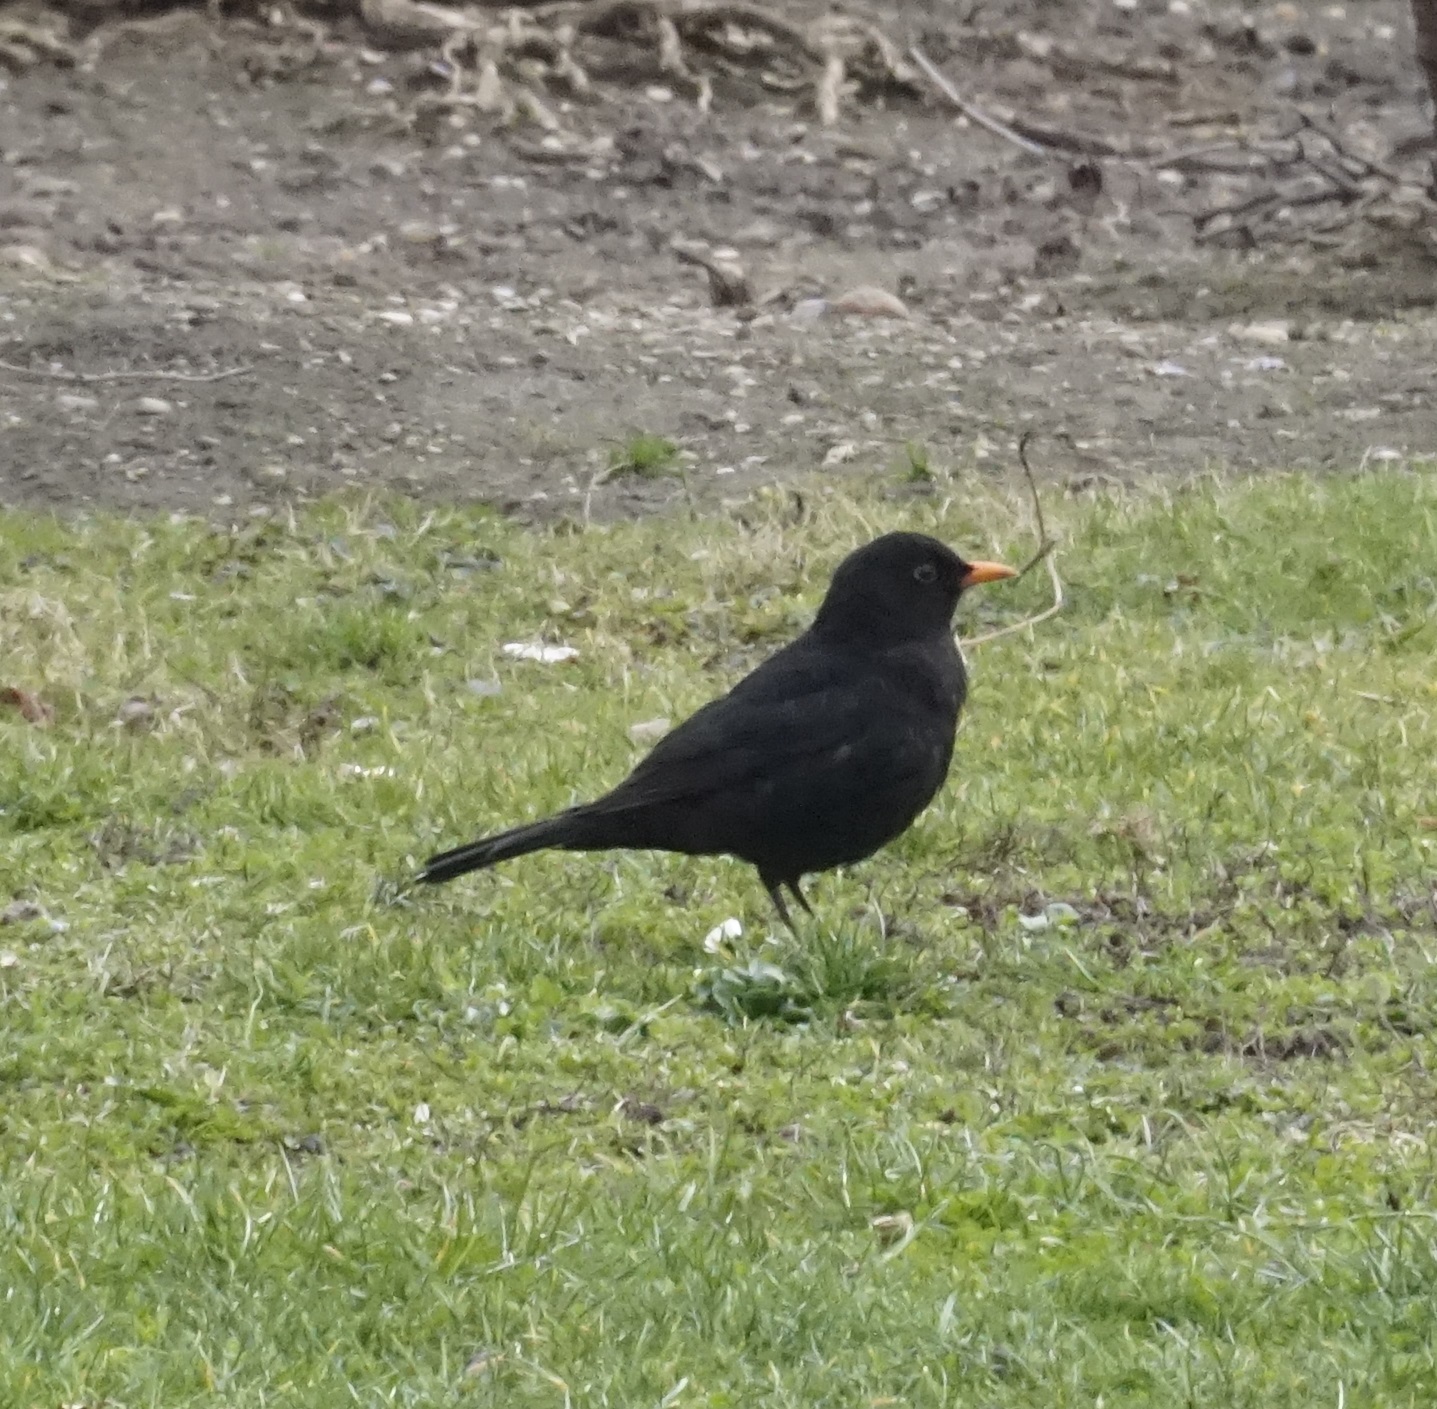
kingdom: Animalia
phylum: Chordata
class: Aves
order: Passeriformes
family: Turdidae
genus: Turdus
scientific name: Turdus merula
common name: Common blackbird
